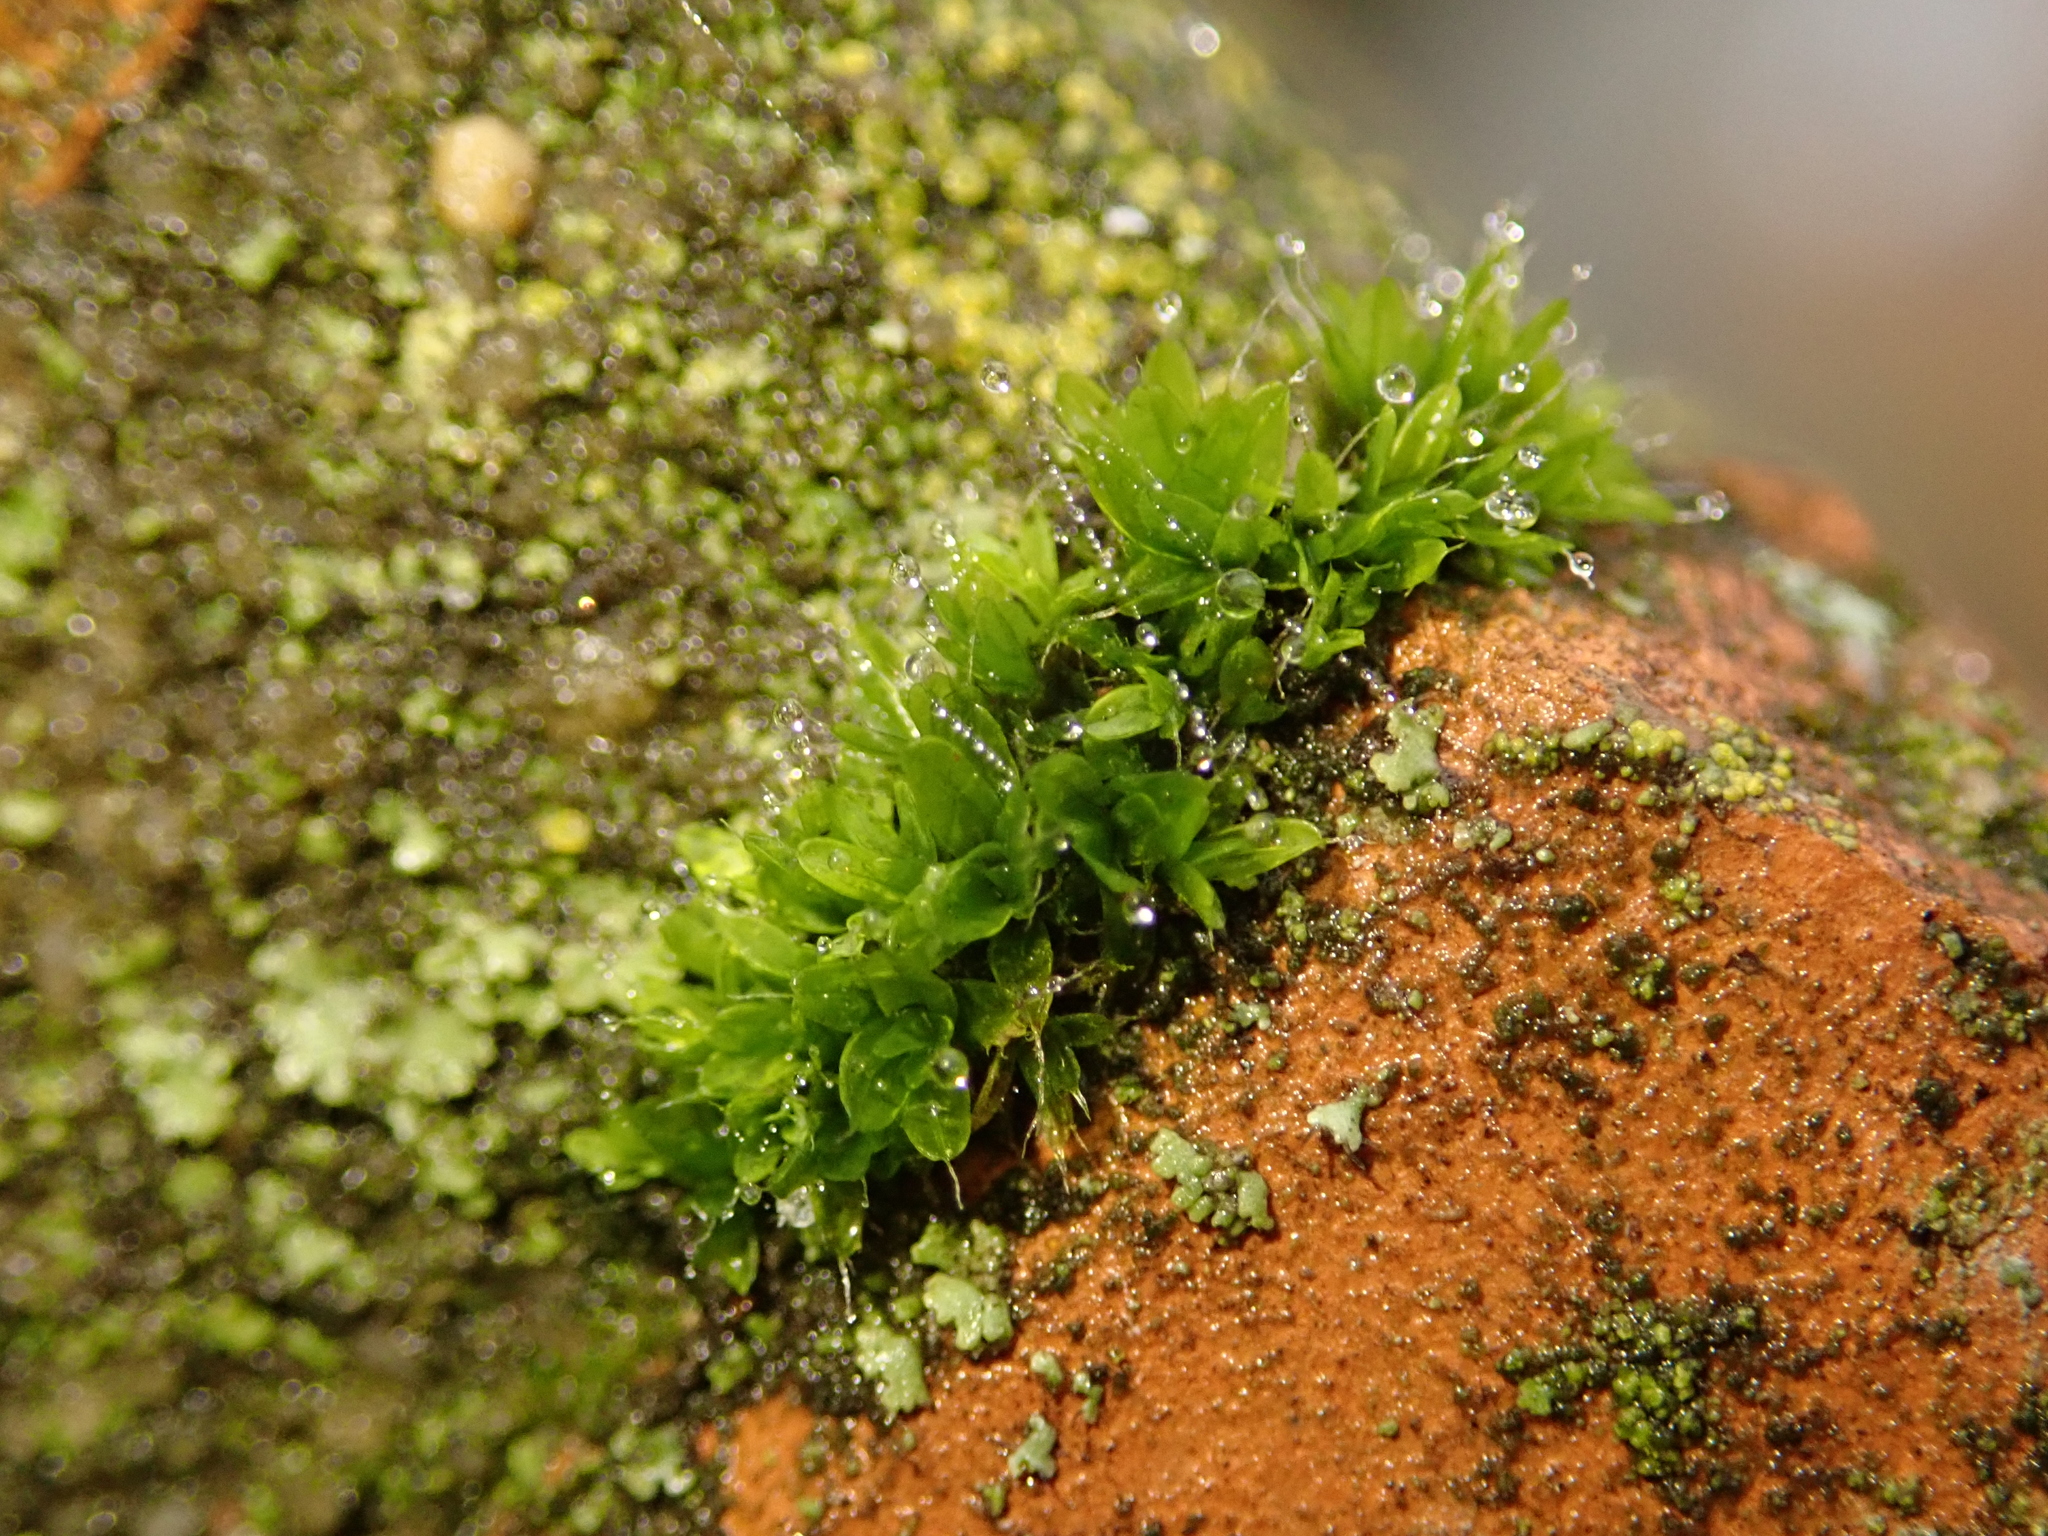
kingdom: Plantae
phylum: Bryophyta
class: Bryopsida
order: Pottiales
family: Pottiaceae
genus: Tortula
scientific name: Tortula muralis
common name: Wall screw-moss
